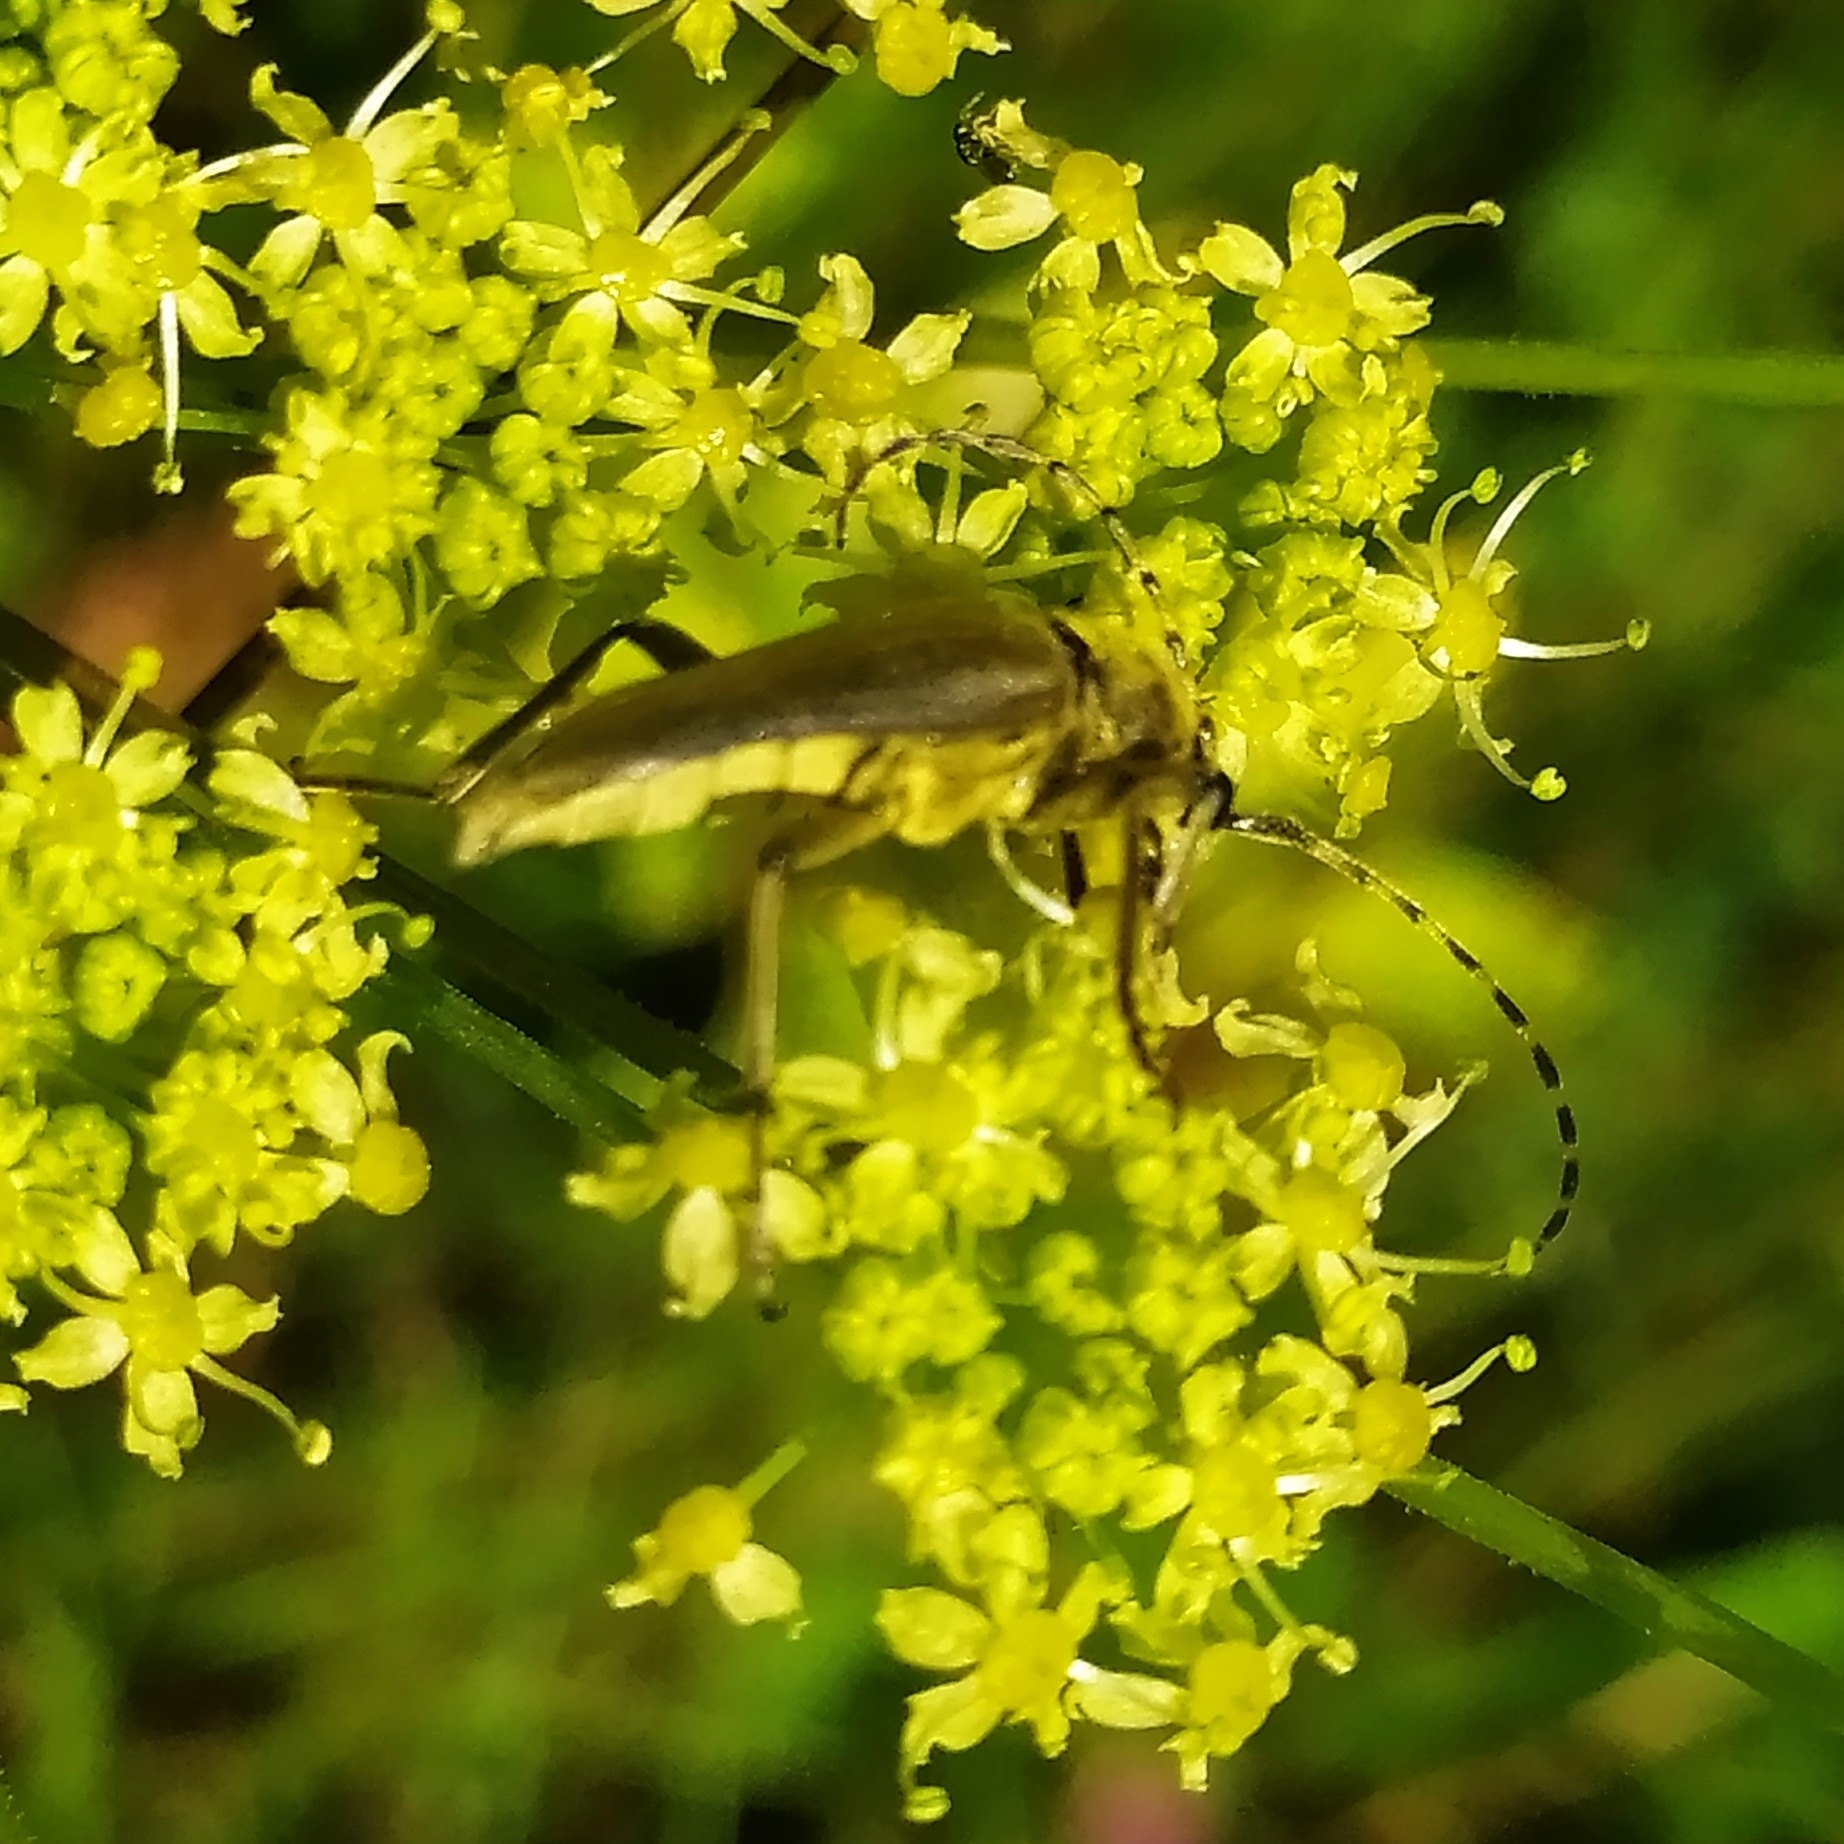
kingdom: Animalia
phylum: Arthropoda
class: Insecta
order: Coleoptera
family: Cerambycidae
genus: Lepturobosca
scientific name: Lepturobosca virens
